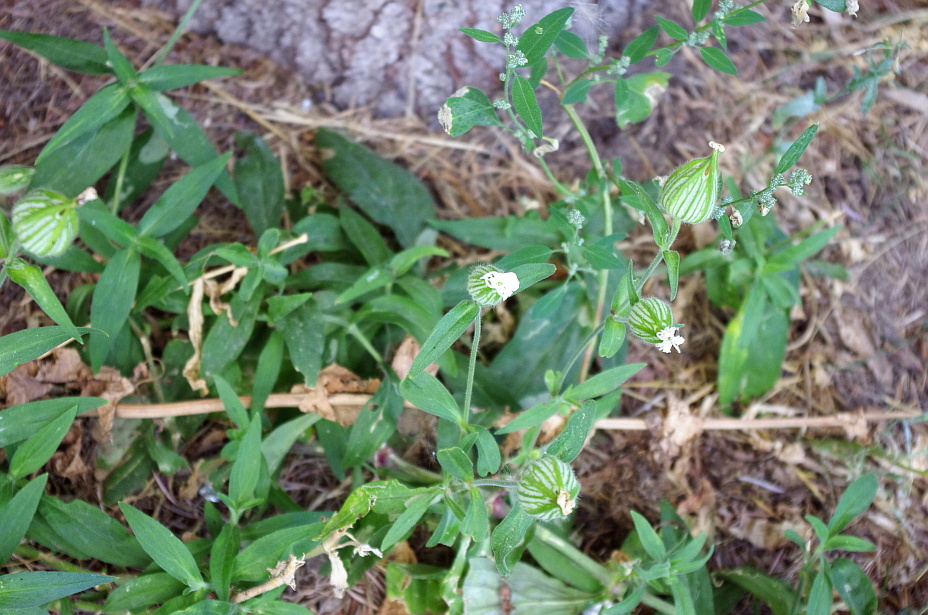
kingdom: Plantae
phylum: Tracheophyta
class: Magnoliopsida
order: Caryophyllales
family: Caryophyllaceae
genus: Silene
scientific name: Silene latifolia
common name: White campion
